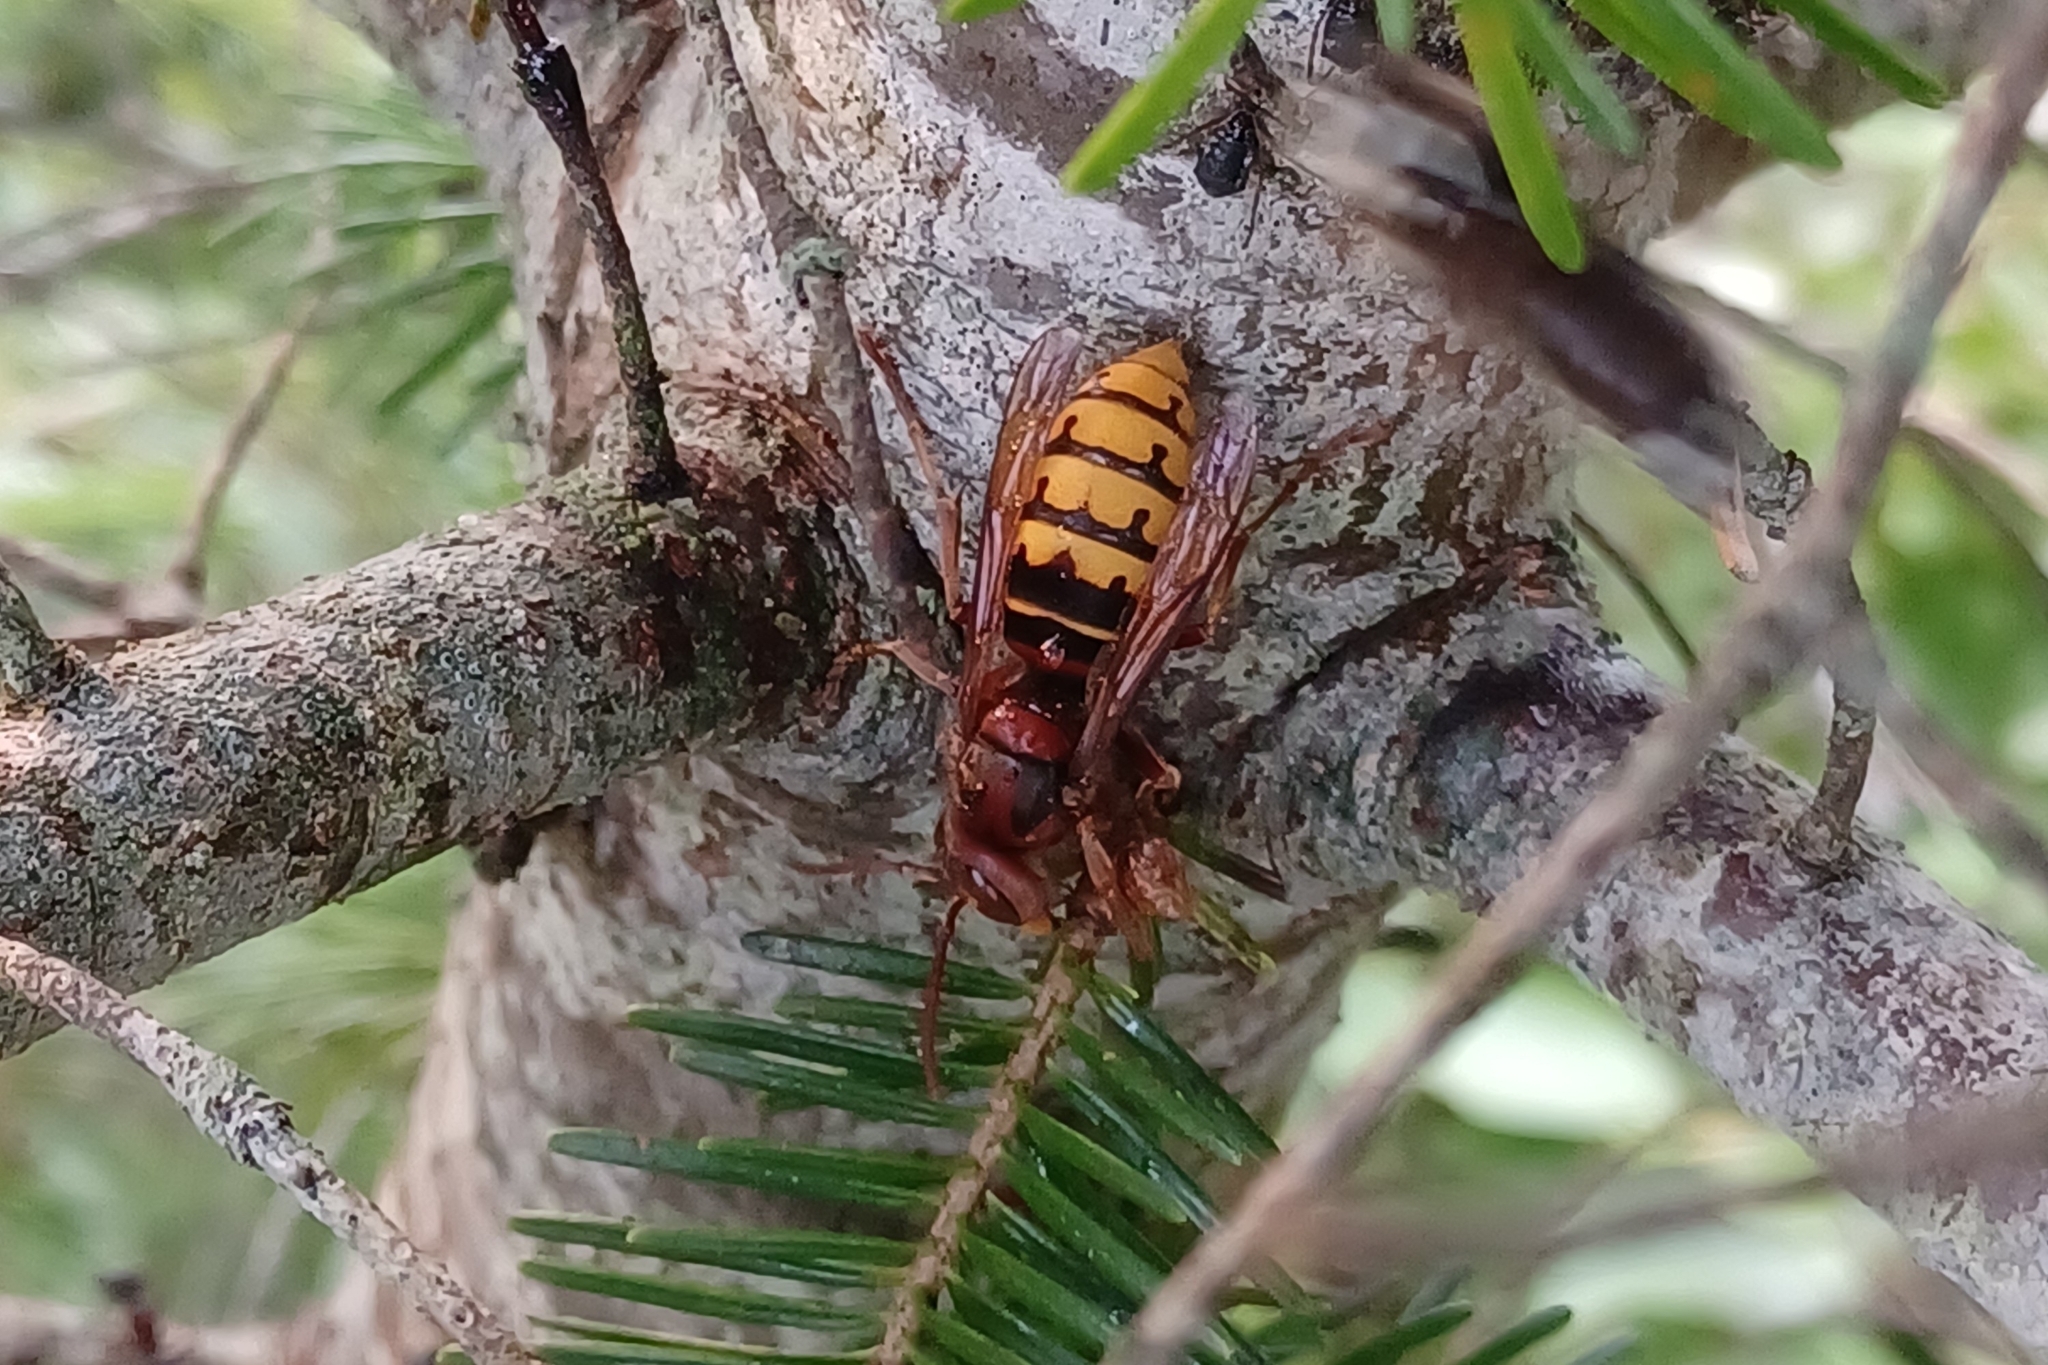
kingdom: Animalia
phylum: Arthropoda
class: Insecta
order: Hymenoptera
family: Vespidae
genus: Vespa
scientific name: Vespa crabro
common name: Hornet
